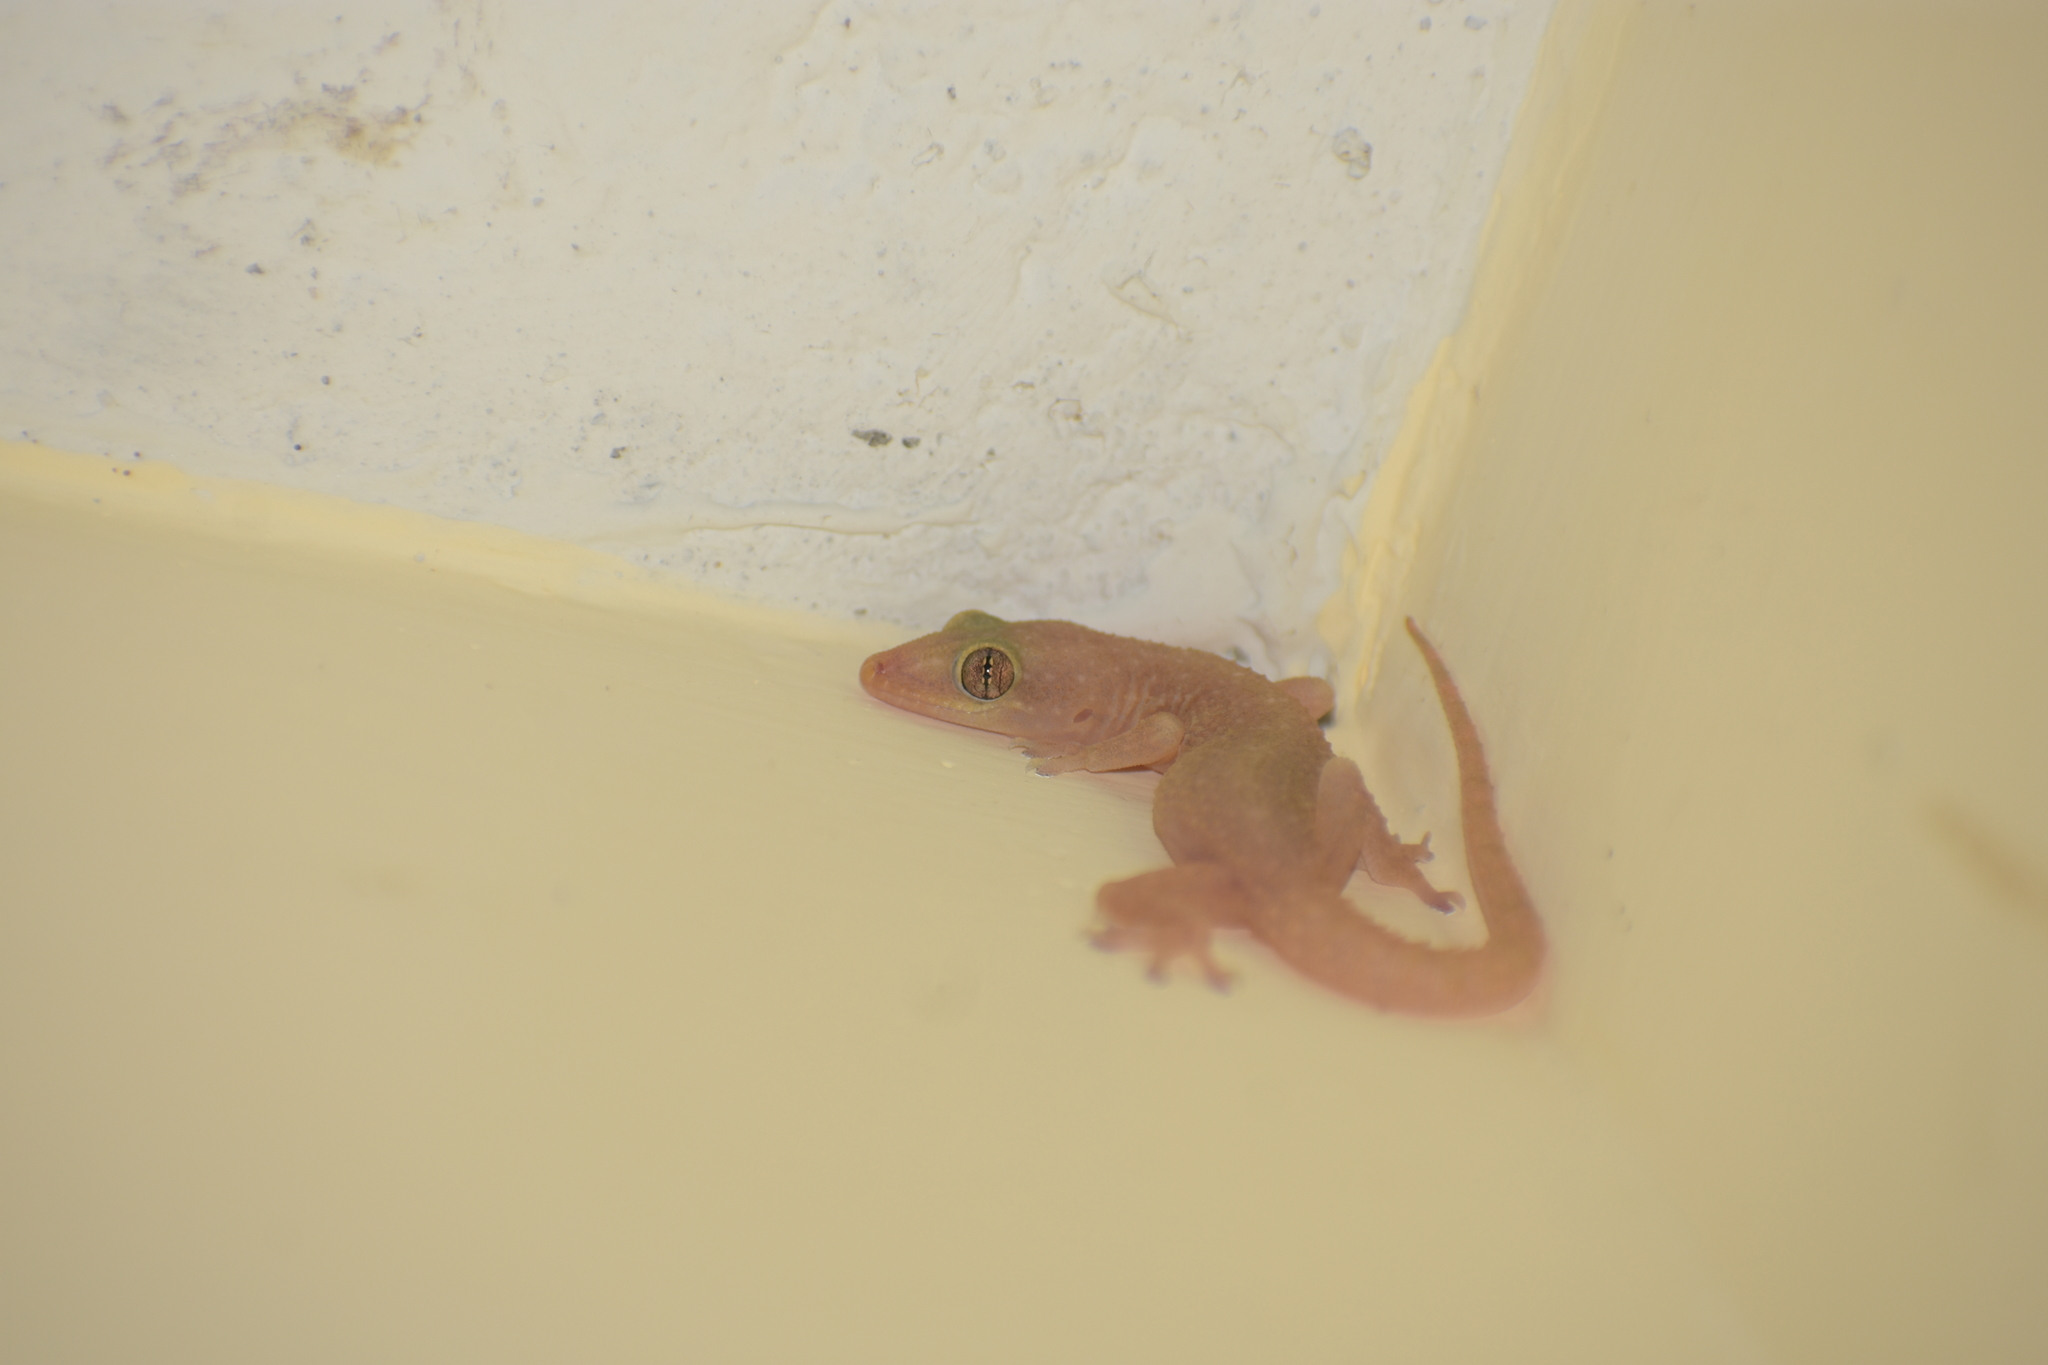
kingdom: Animalia
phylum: Chordata
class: Squamata
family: Gekkonidae
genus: Hemidactylus
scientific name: Hemidactylus parvimaculatus
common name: Spotted house gecko
